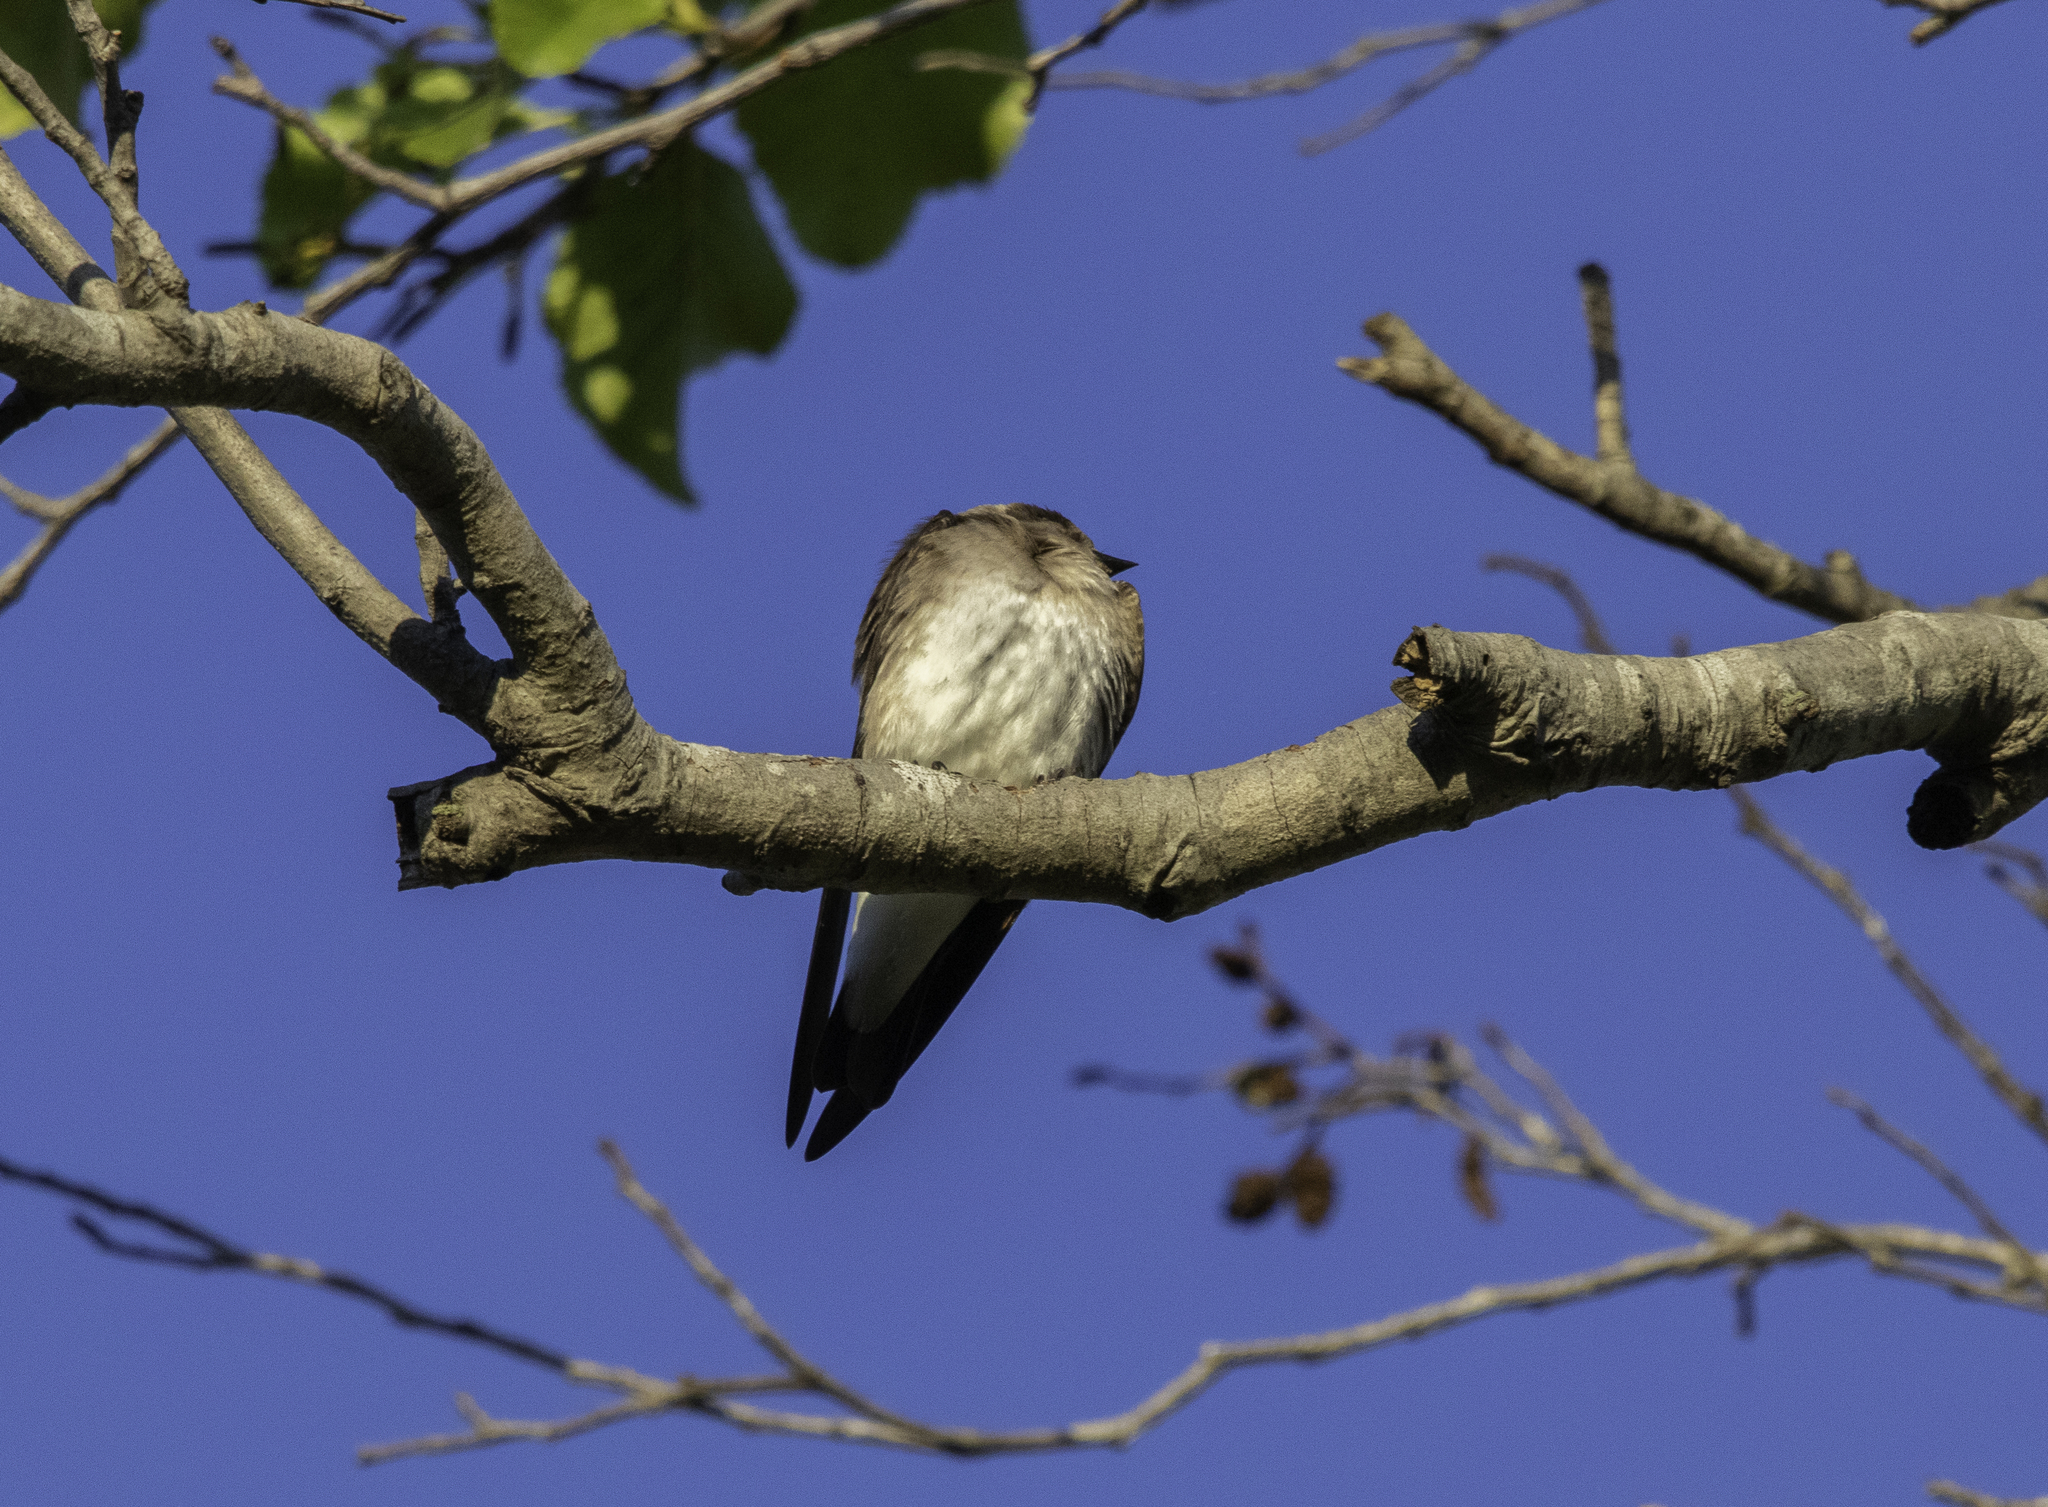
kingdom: Animalia
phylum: Chordata
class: Aves
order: Passeriformes
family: Hirundinidae
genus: Stelgidopteryx
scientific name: Stelgidopteryx serripennis
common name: Northern rough-winged swallow
